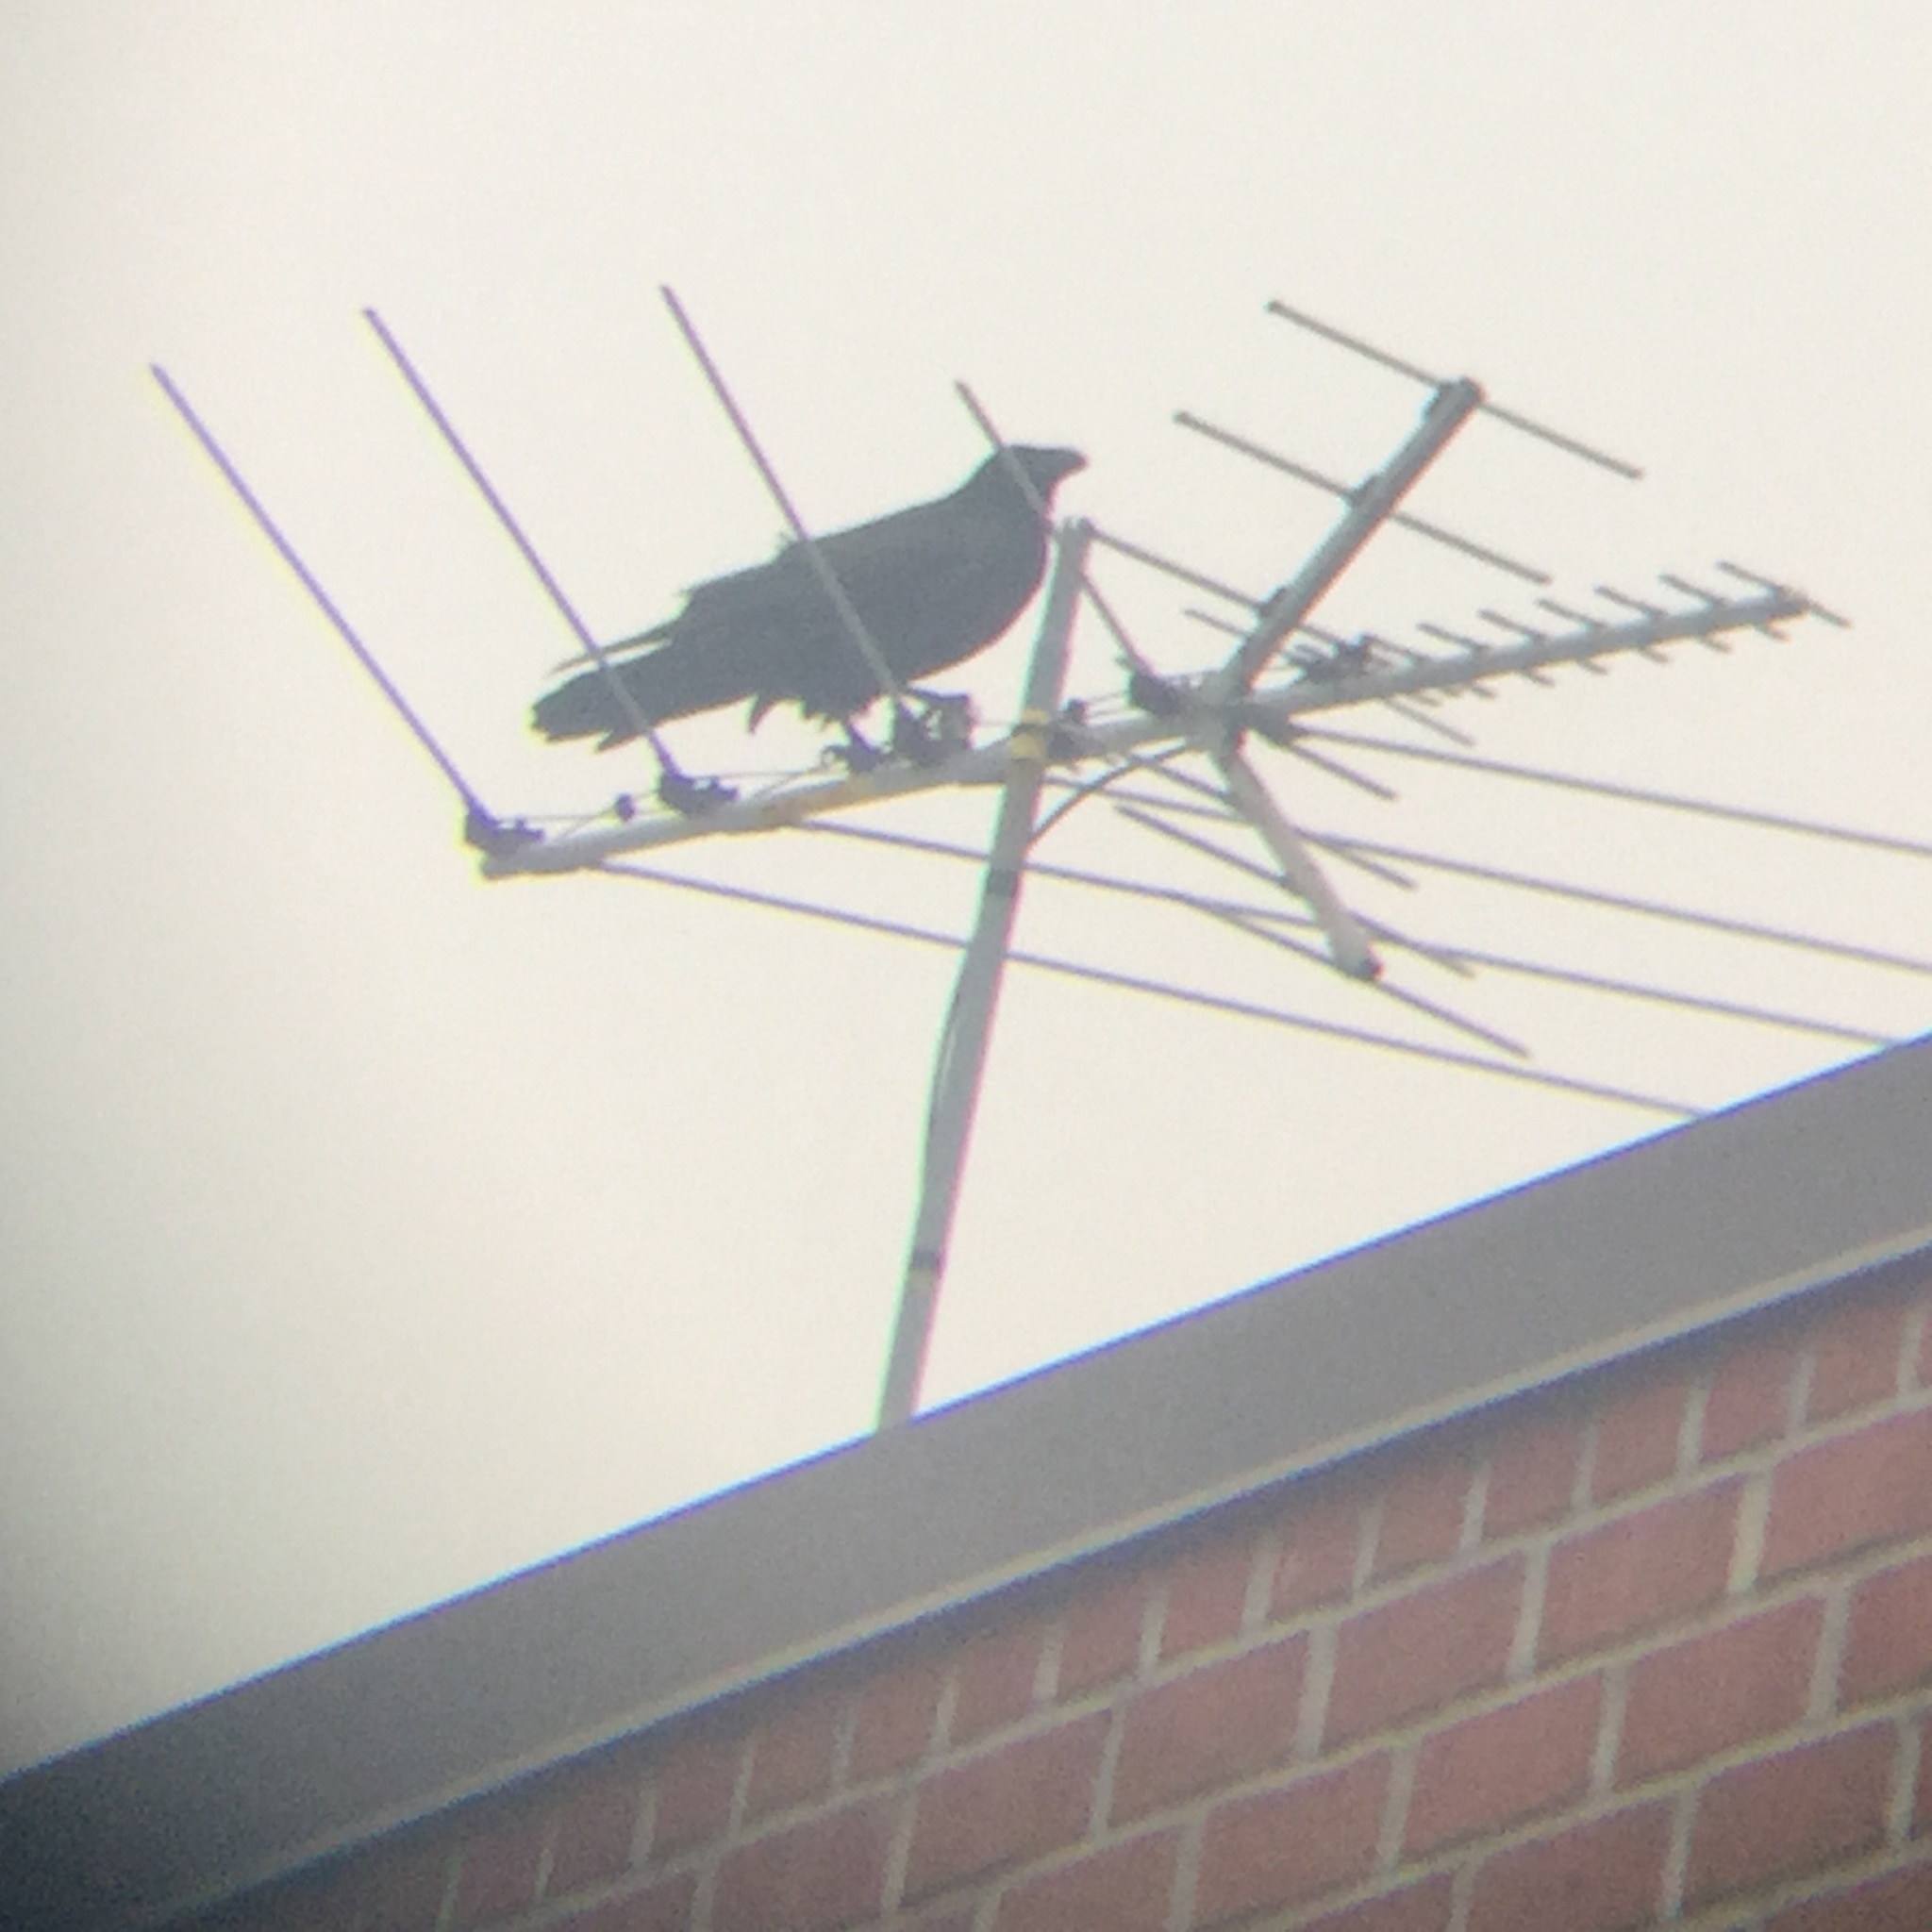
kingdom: Animalia
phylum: Chordata
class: Aves
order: Passeriformes
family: Corvidae
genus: Corvus
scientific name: Corvus corax
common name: Common raven
